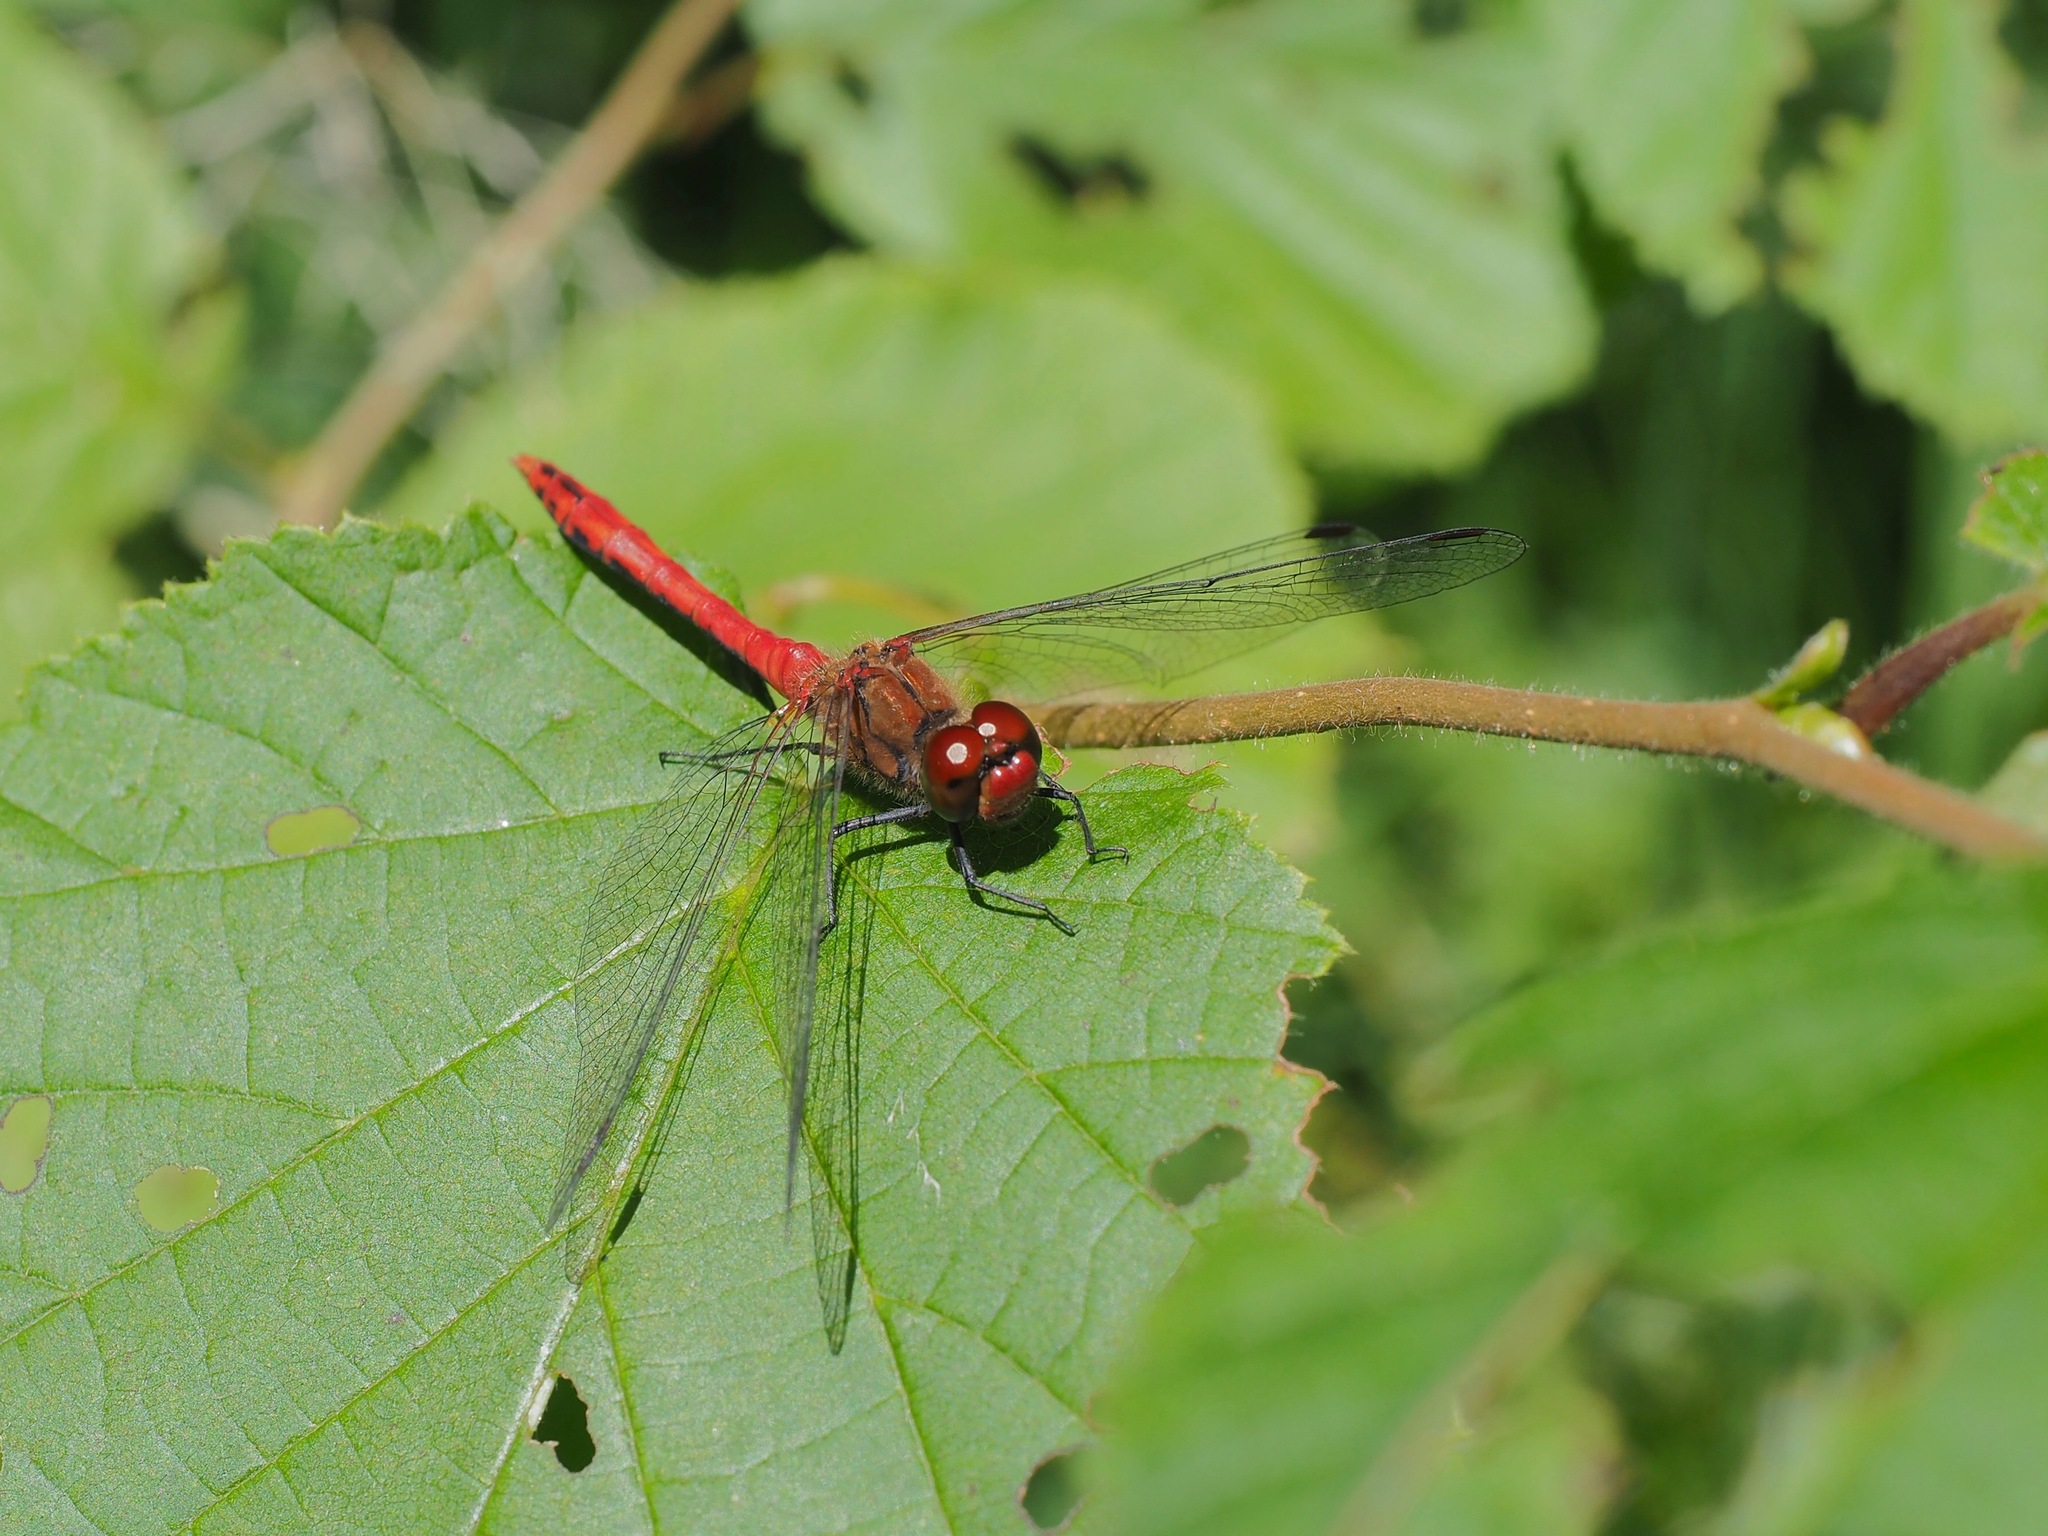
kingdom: Animalia
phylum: Arthropoda
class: Insecta
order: Odonata
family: Libellulidae
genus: Sympetrum
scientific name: Sympetrum sanguineum
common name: Ruddy darter
